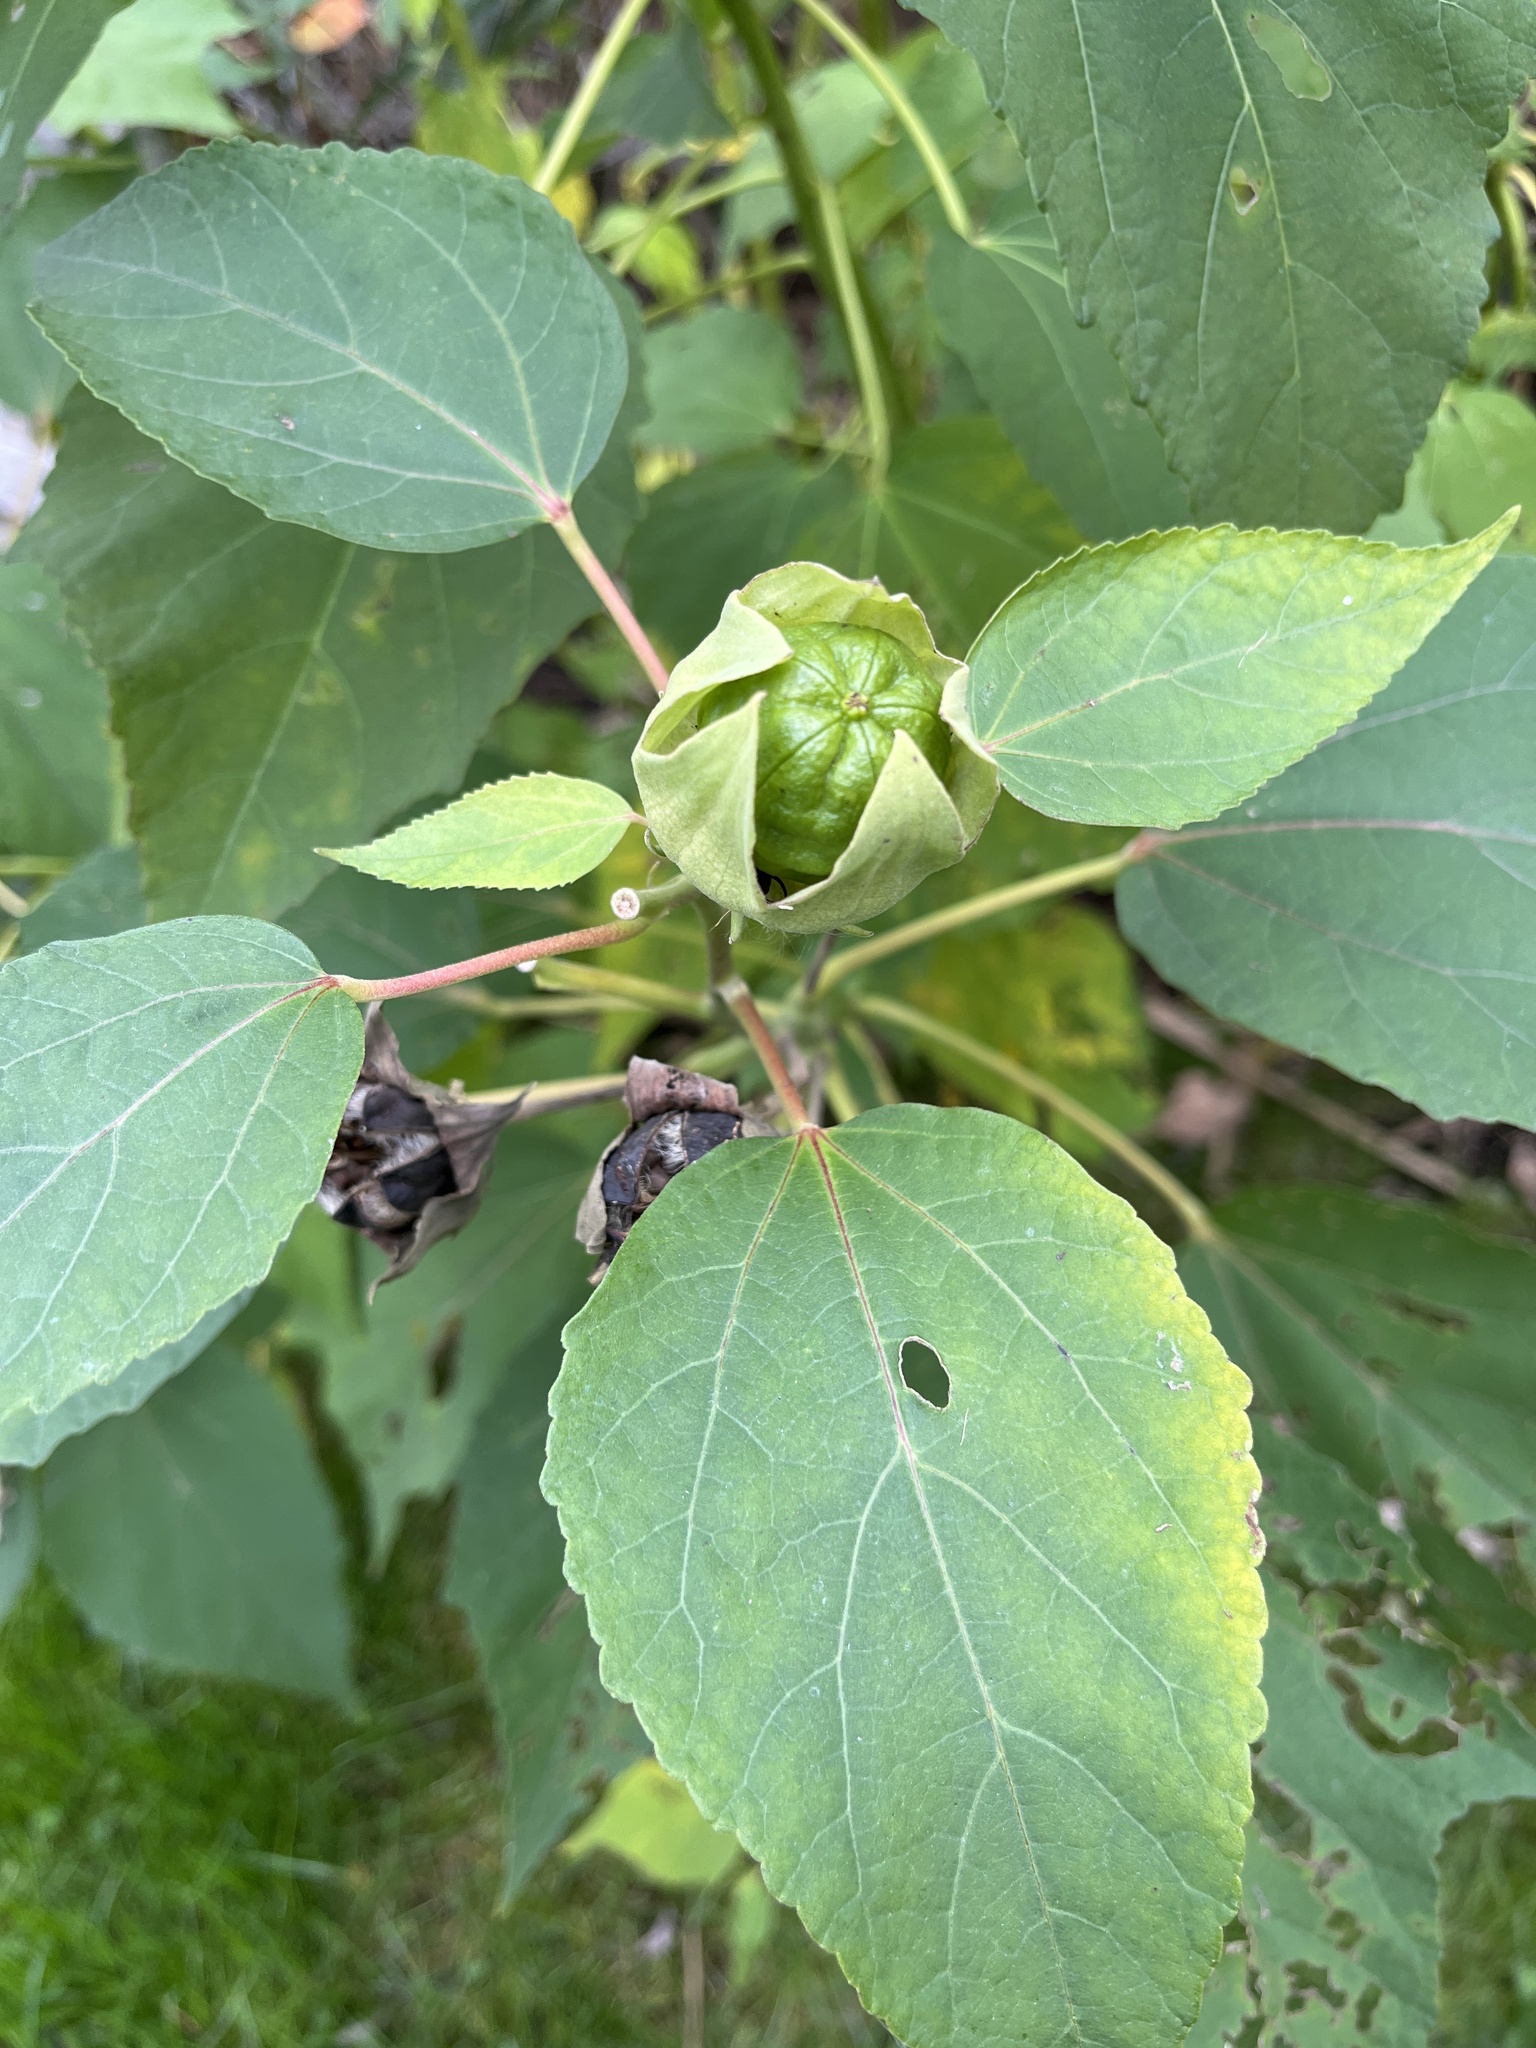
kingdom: Plantae
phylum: Tracheophyta
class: Magnoliopsida
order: Malvales
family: Malvaceae
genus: Hibiscus
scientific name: Hibiscus moscheutos
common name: Common rose-mallow
